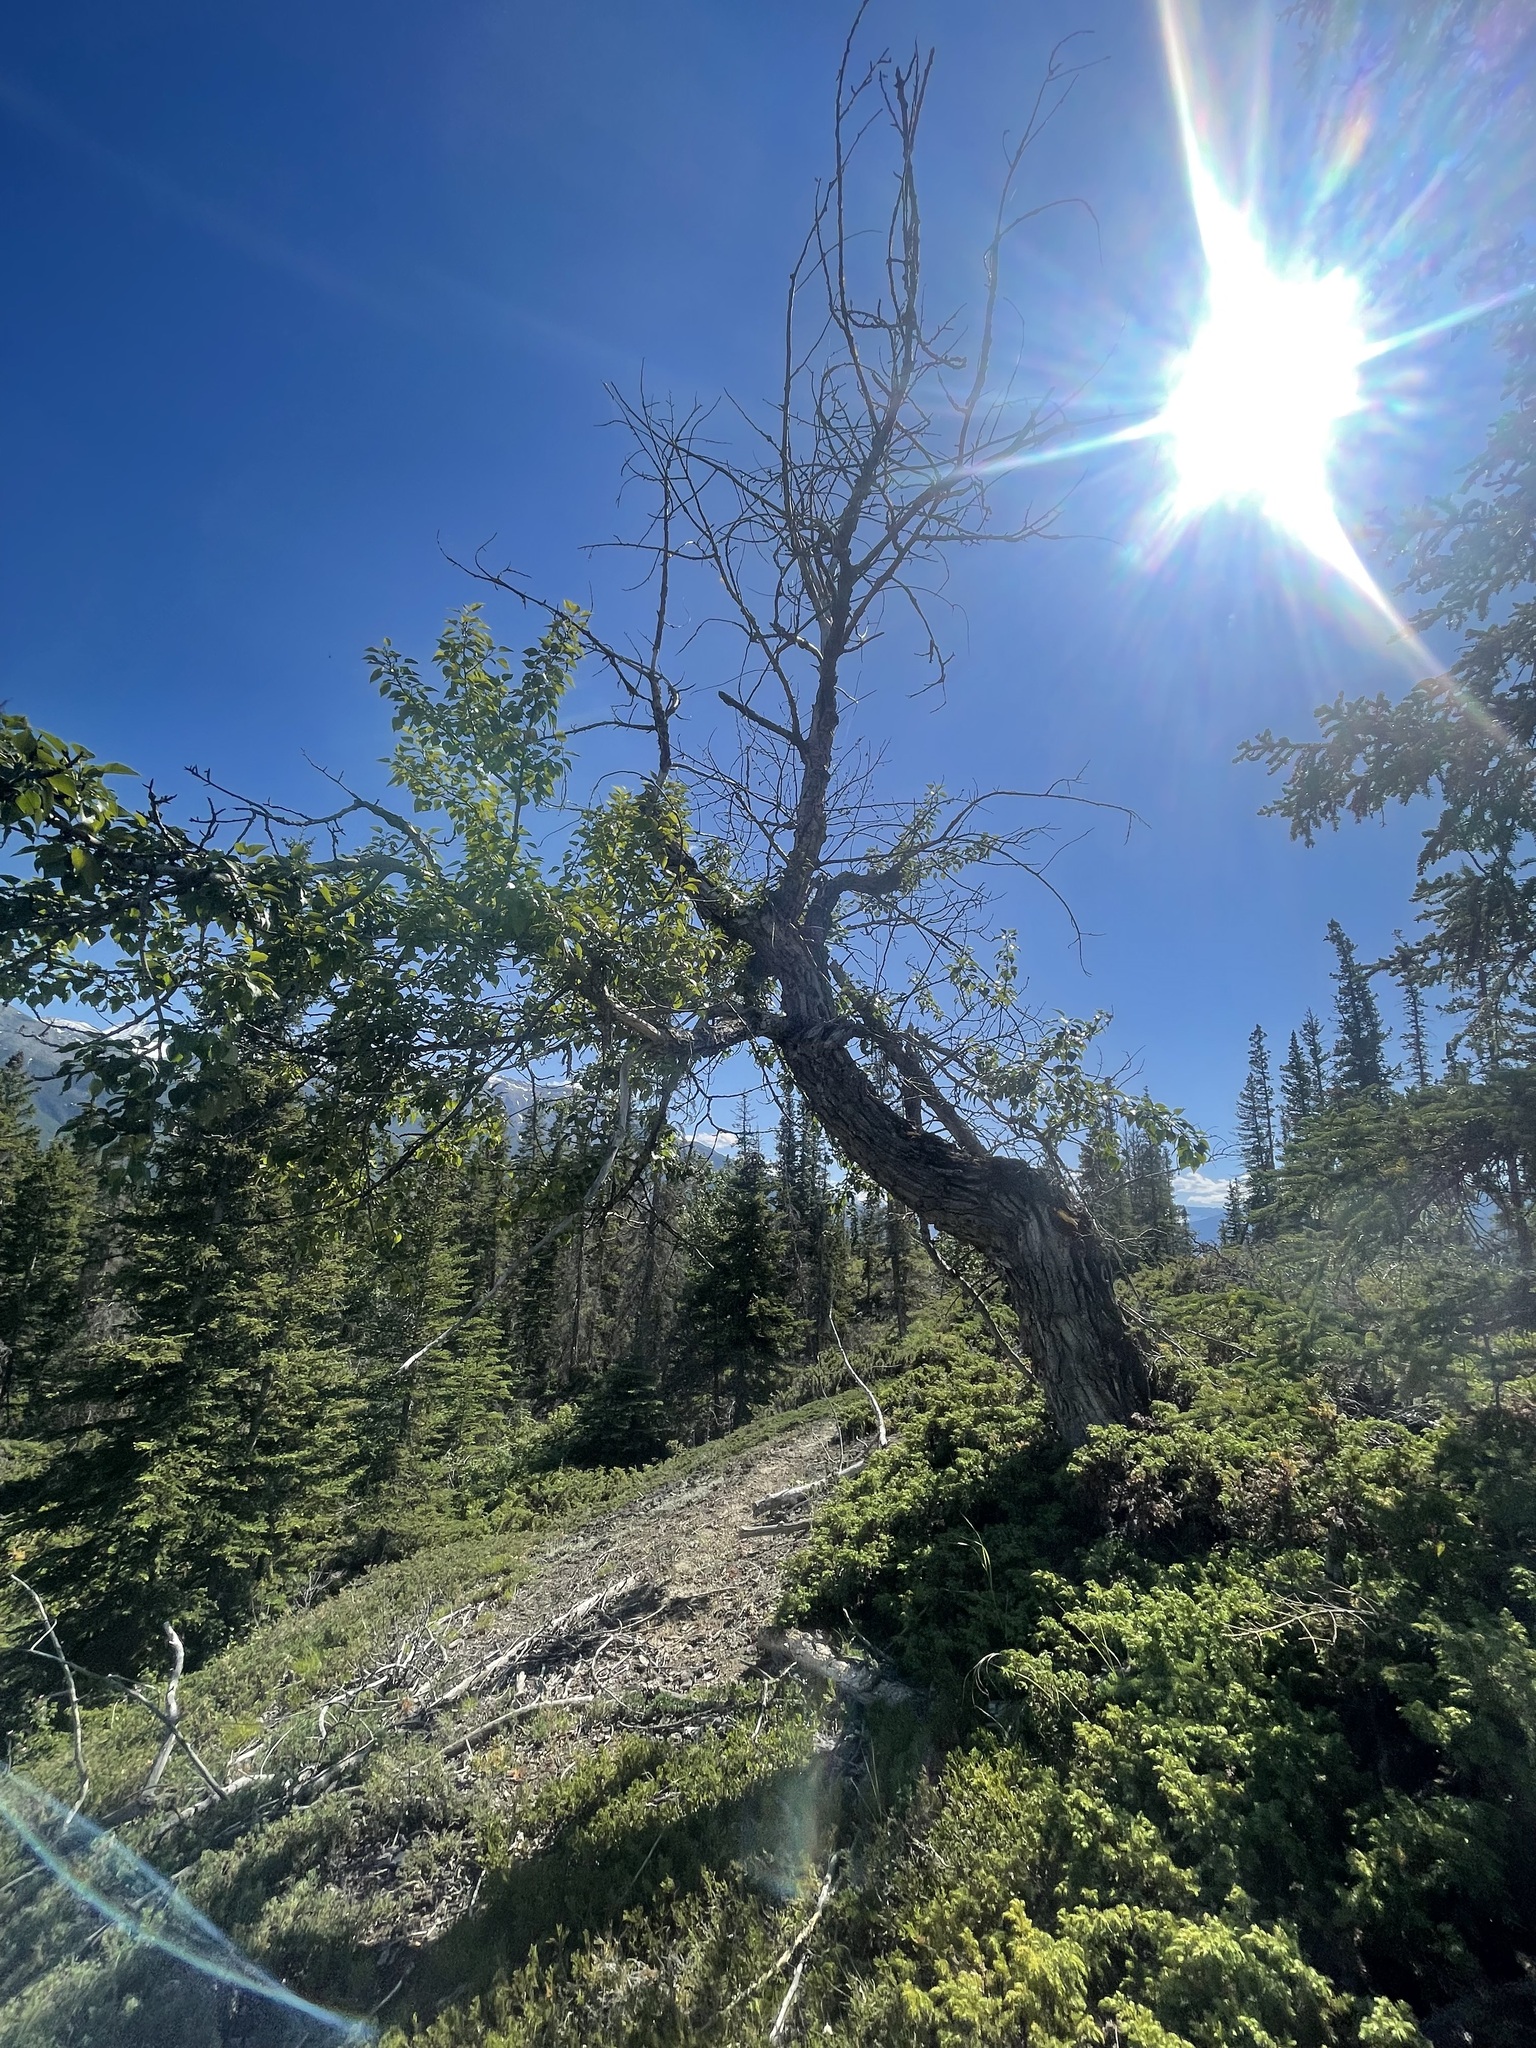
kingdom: Plantae
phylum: Tracheophyta
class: Magnoliopsida
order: Malpighiales
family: Salicaceae
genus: Populus
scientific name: Populus balsamifera
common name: Balsam poplar
